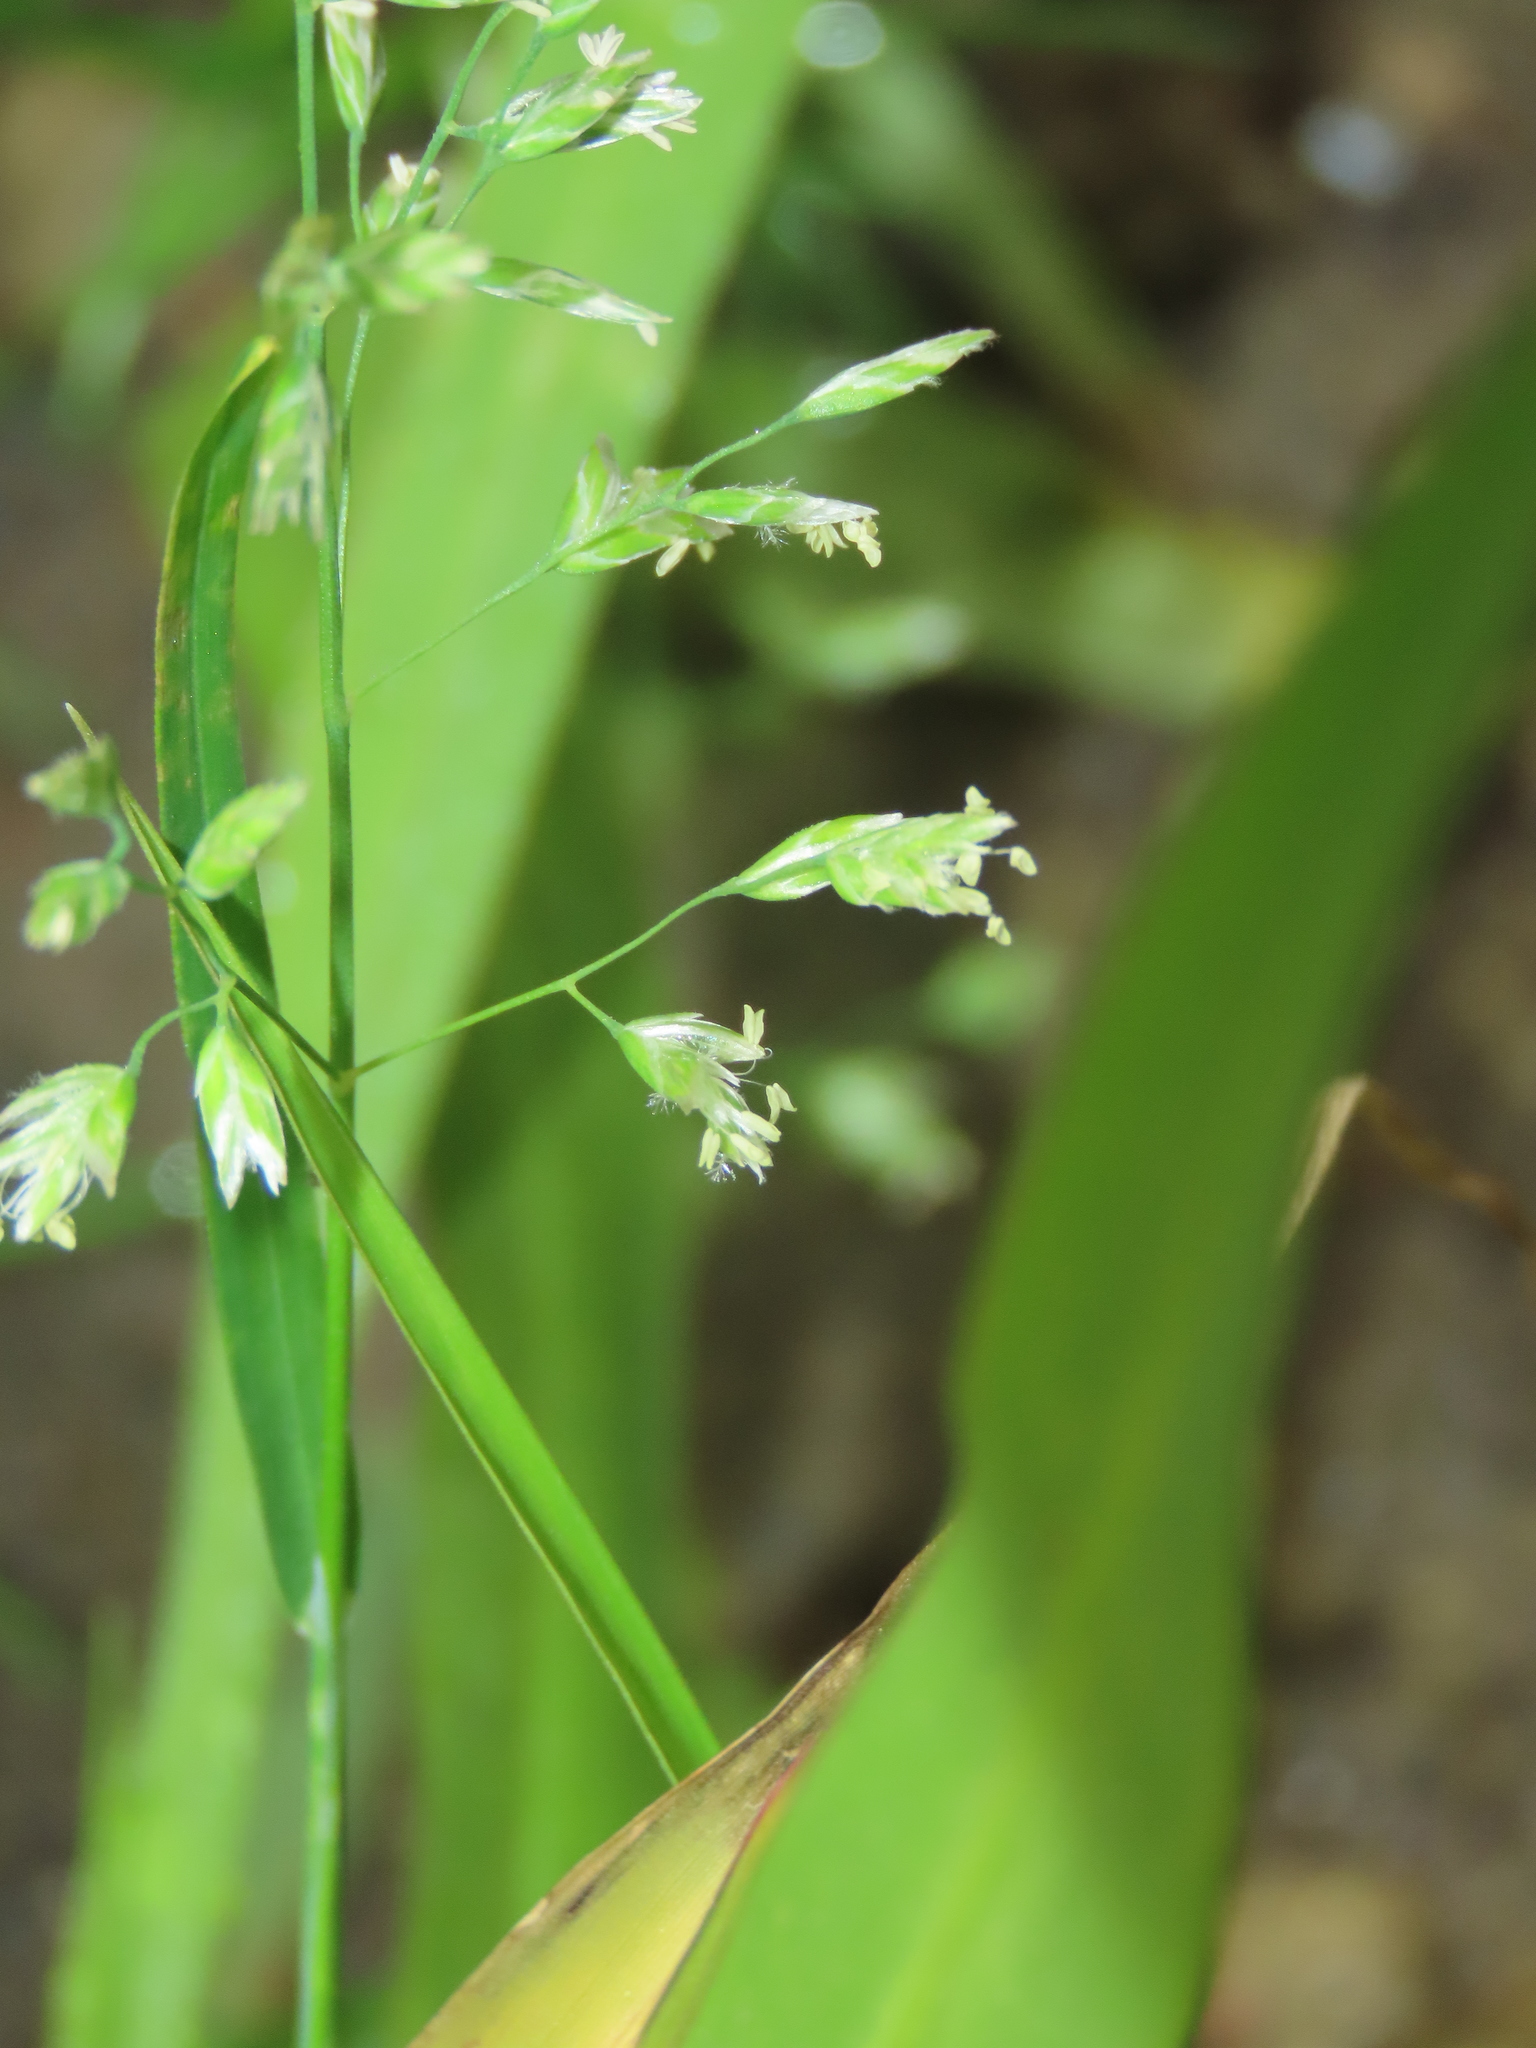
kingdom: Plantae
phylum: Tracheophyta
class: Liliopsida
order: Poales
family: Poaceae
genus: Poa
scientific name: Poa annua
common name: Annual bluegrass
